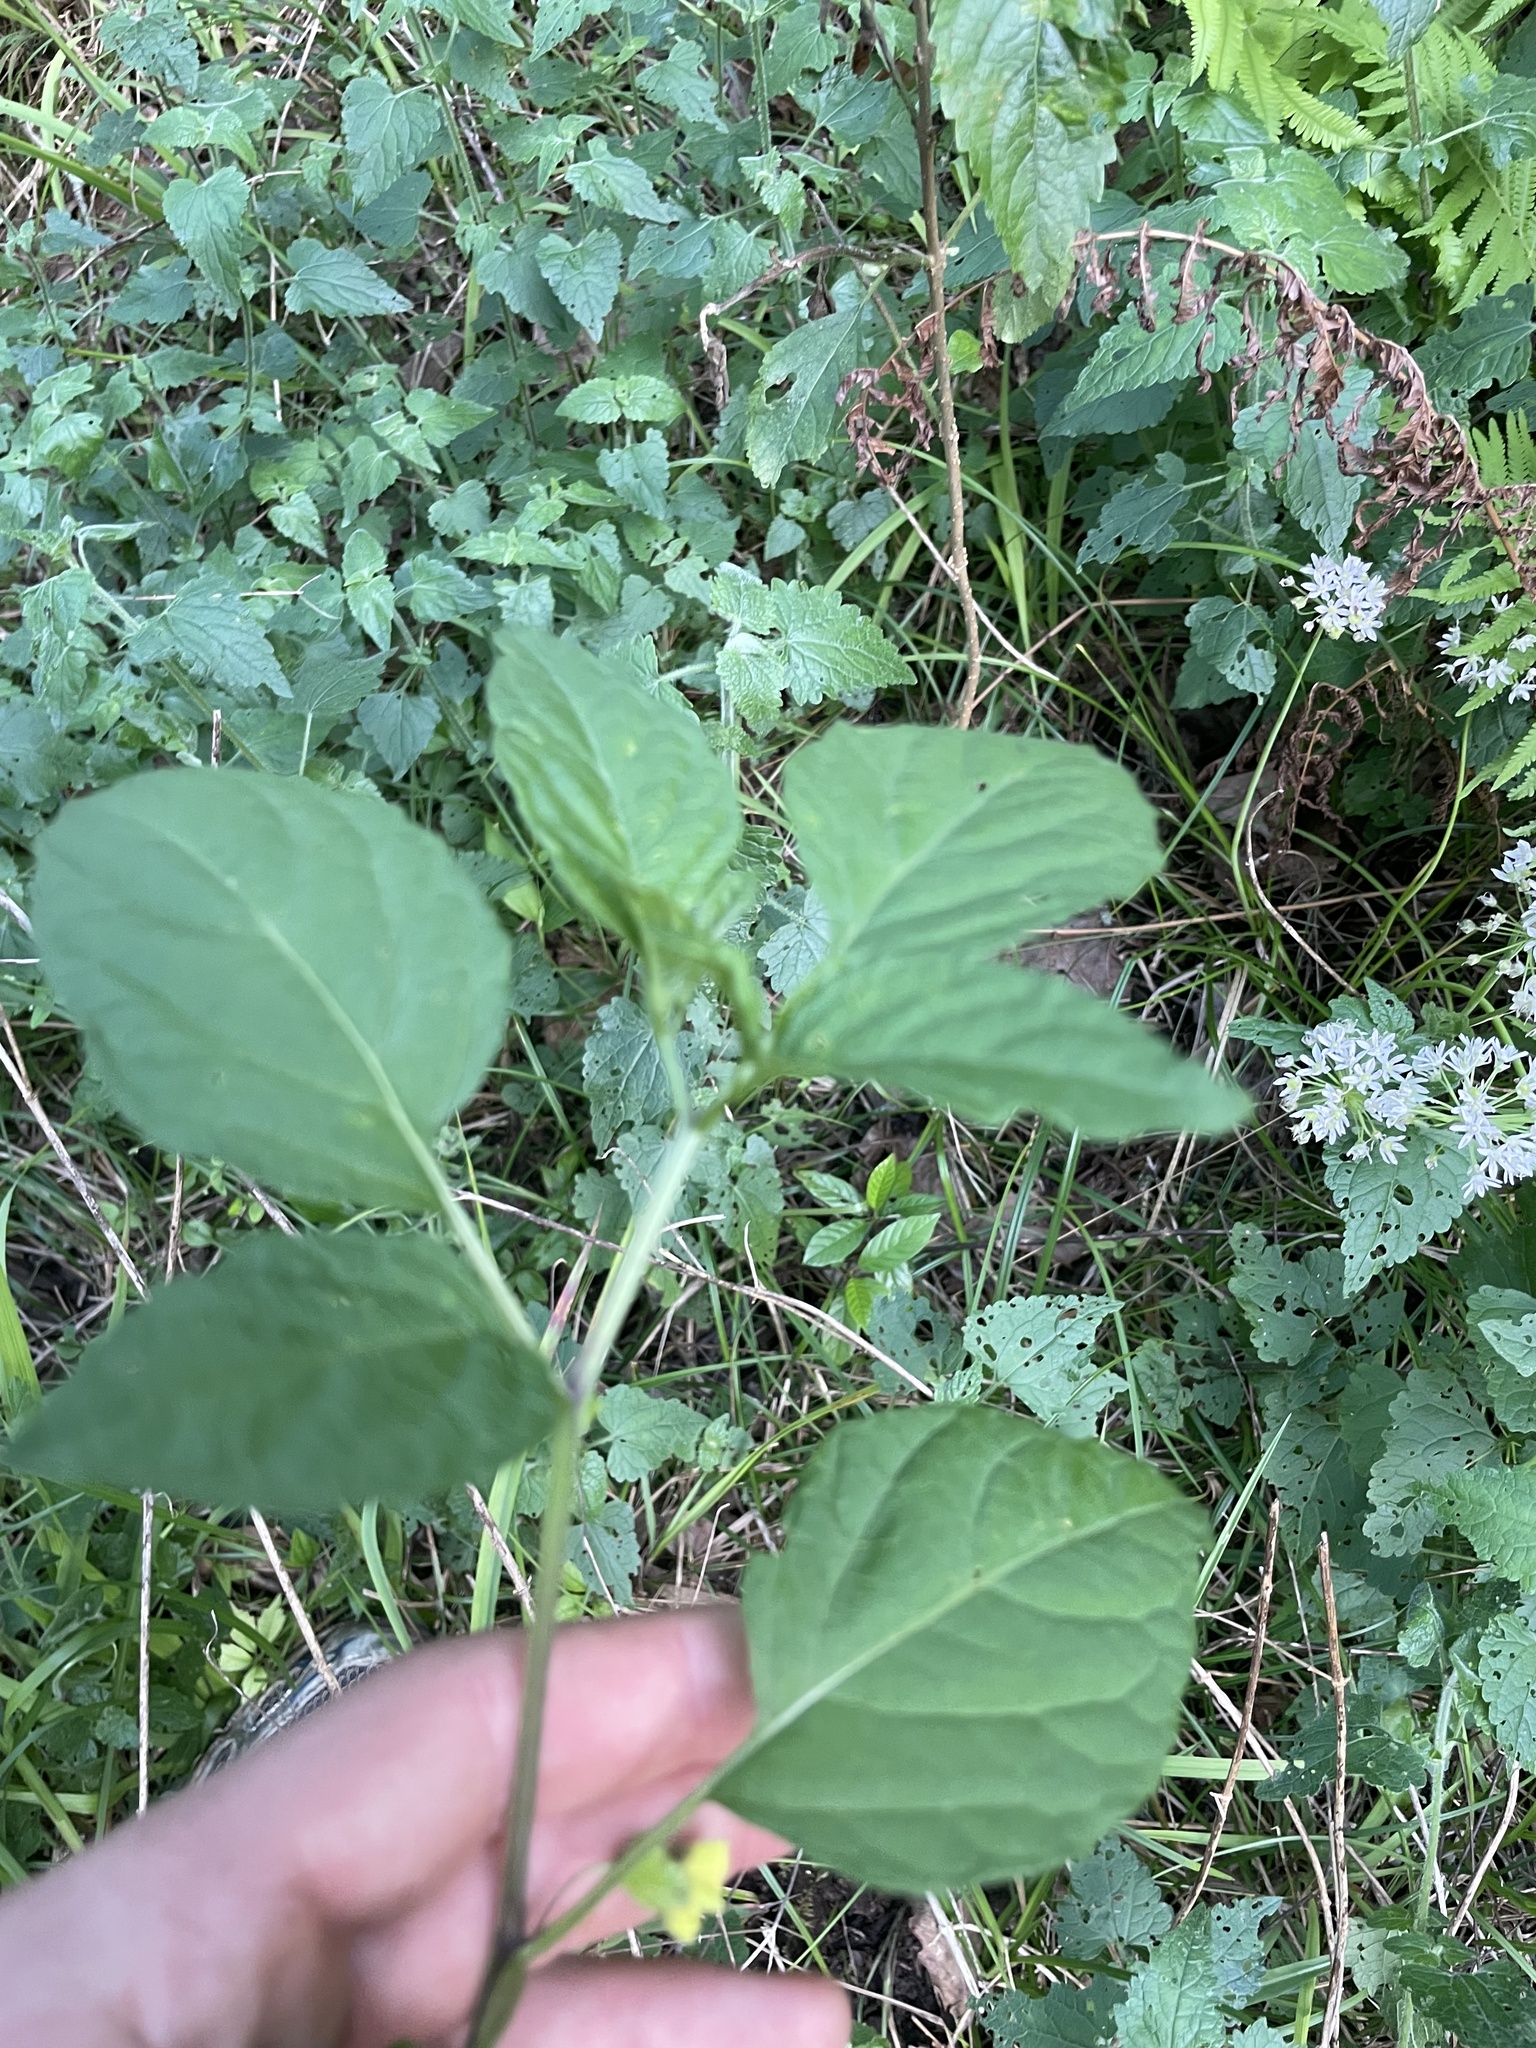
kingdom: Plantae
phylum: Tracheophyta
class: Magnoliopsida
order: Solanales
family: Solanaceae
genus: Physalis
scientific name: Physalis longifolia
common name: Common ground-cherry
